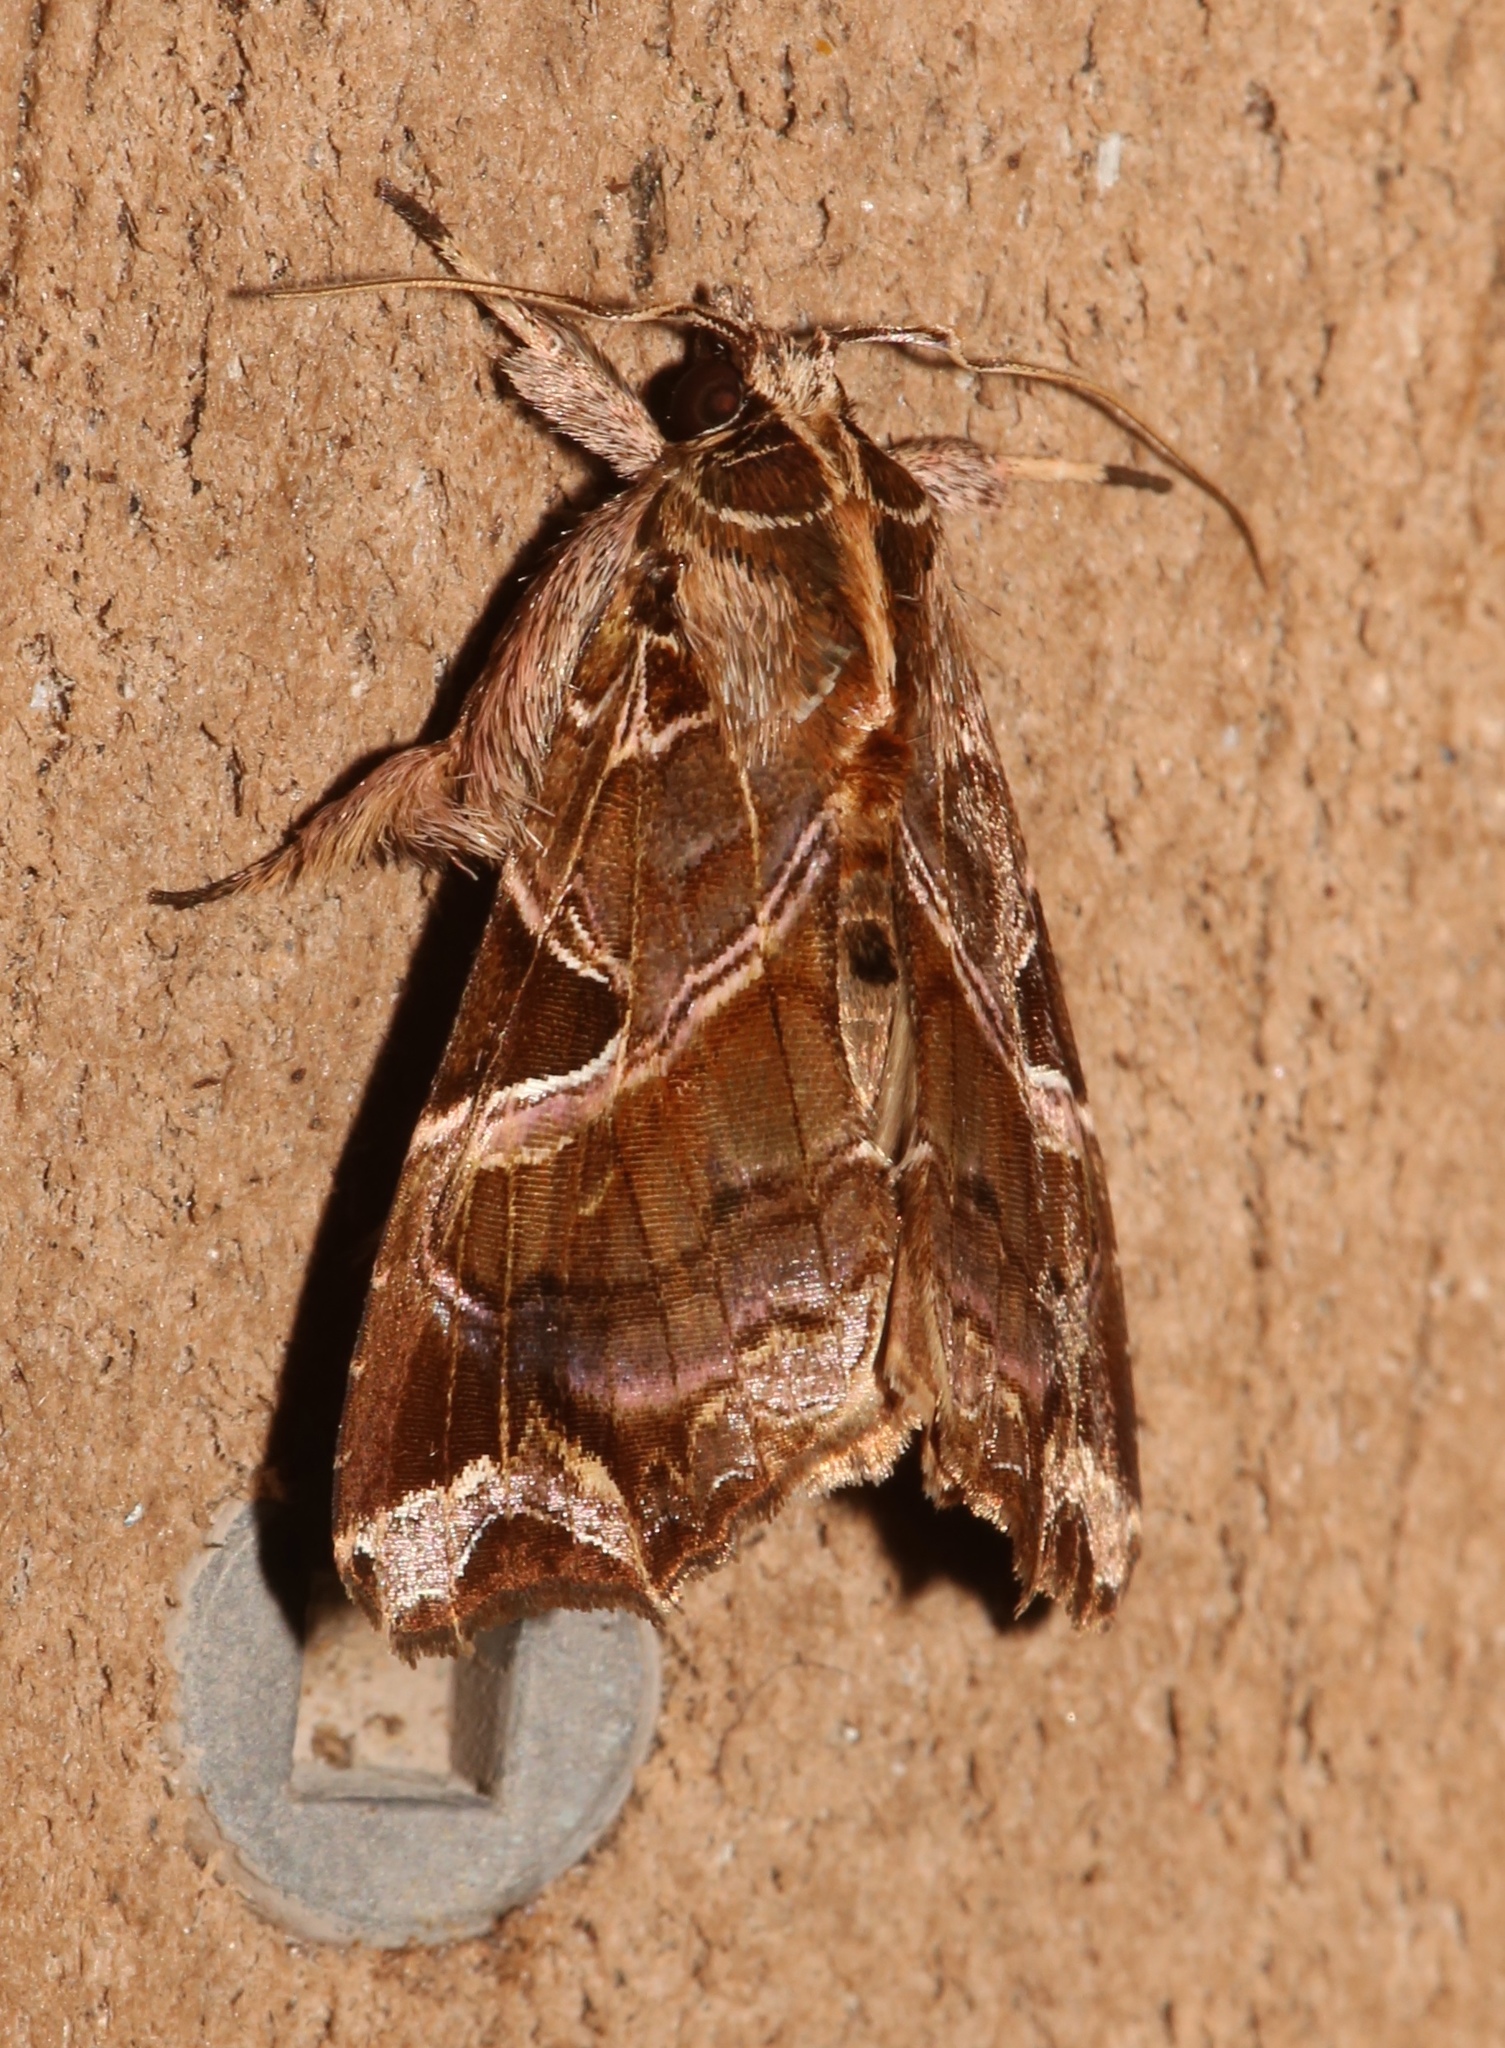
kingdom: Animalia
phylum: Arthropoda
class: Insecta
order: Lepidoptera
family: Noctuidae
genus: Callopistria
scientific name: Callopistria floridensis
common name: Florida fern moth
